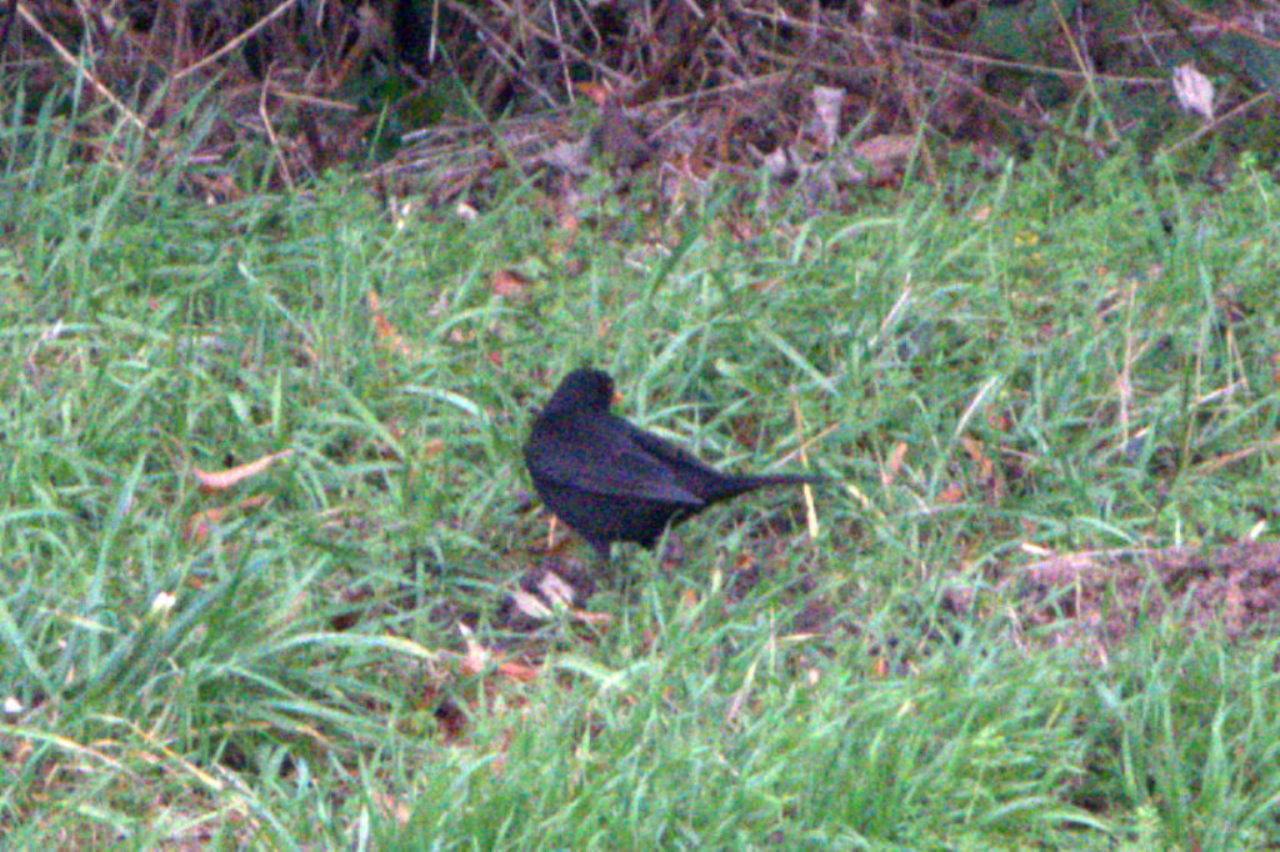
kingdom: Animalia
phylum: Chordata
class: Aves
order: Passeriformes
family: Turdidae
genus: Turdus
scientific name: Turdus merula
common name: Common blackbird
